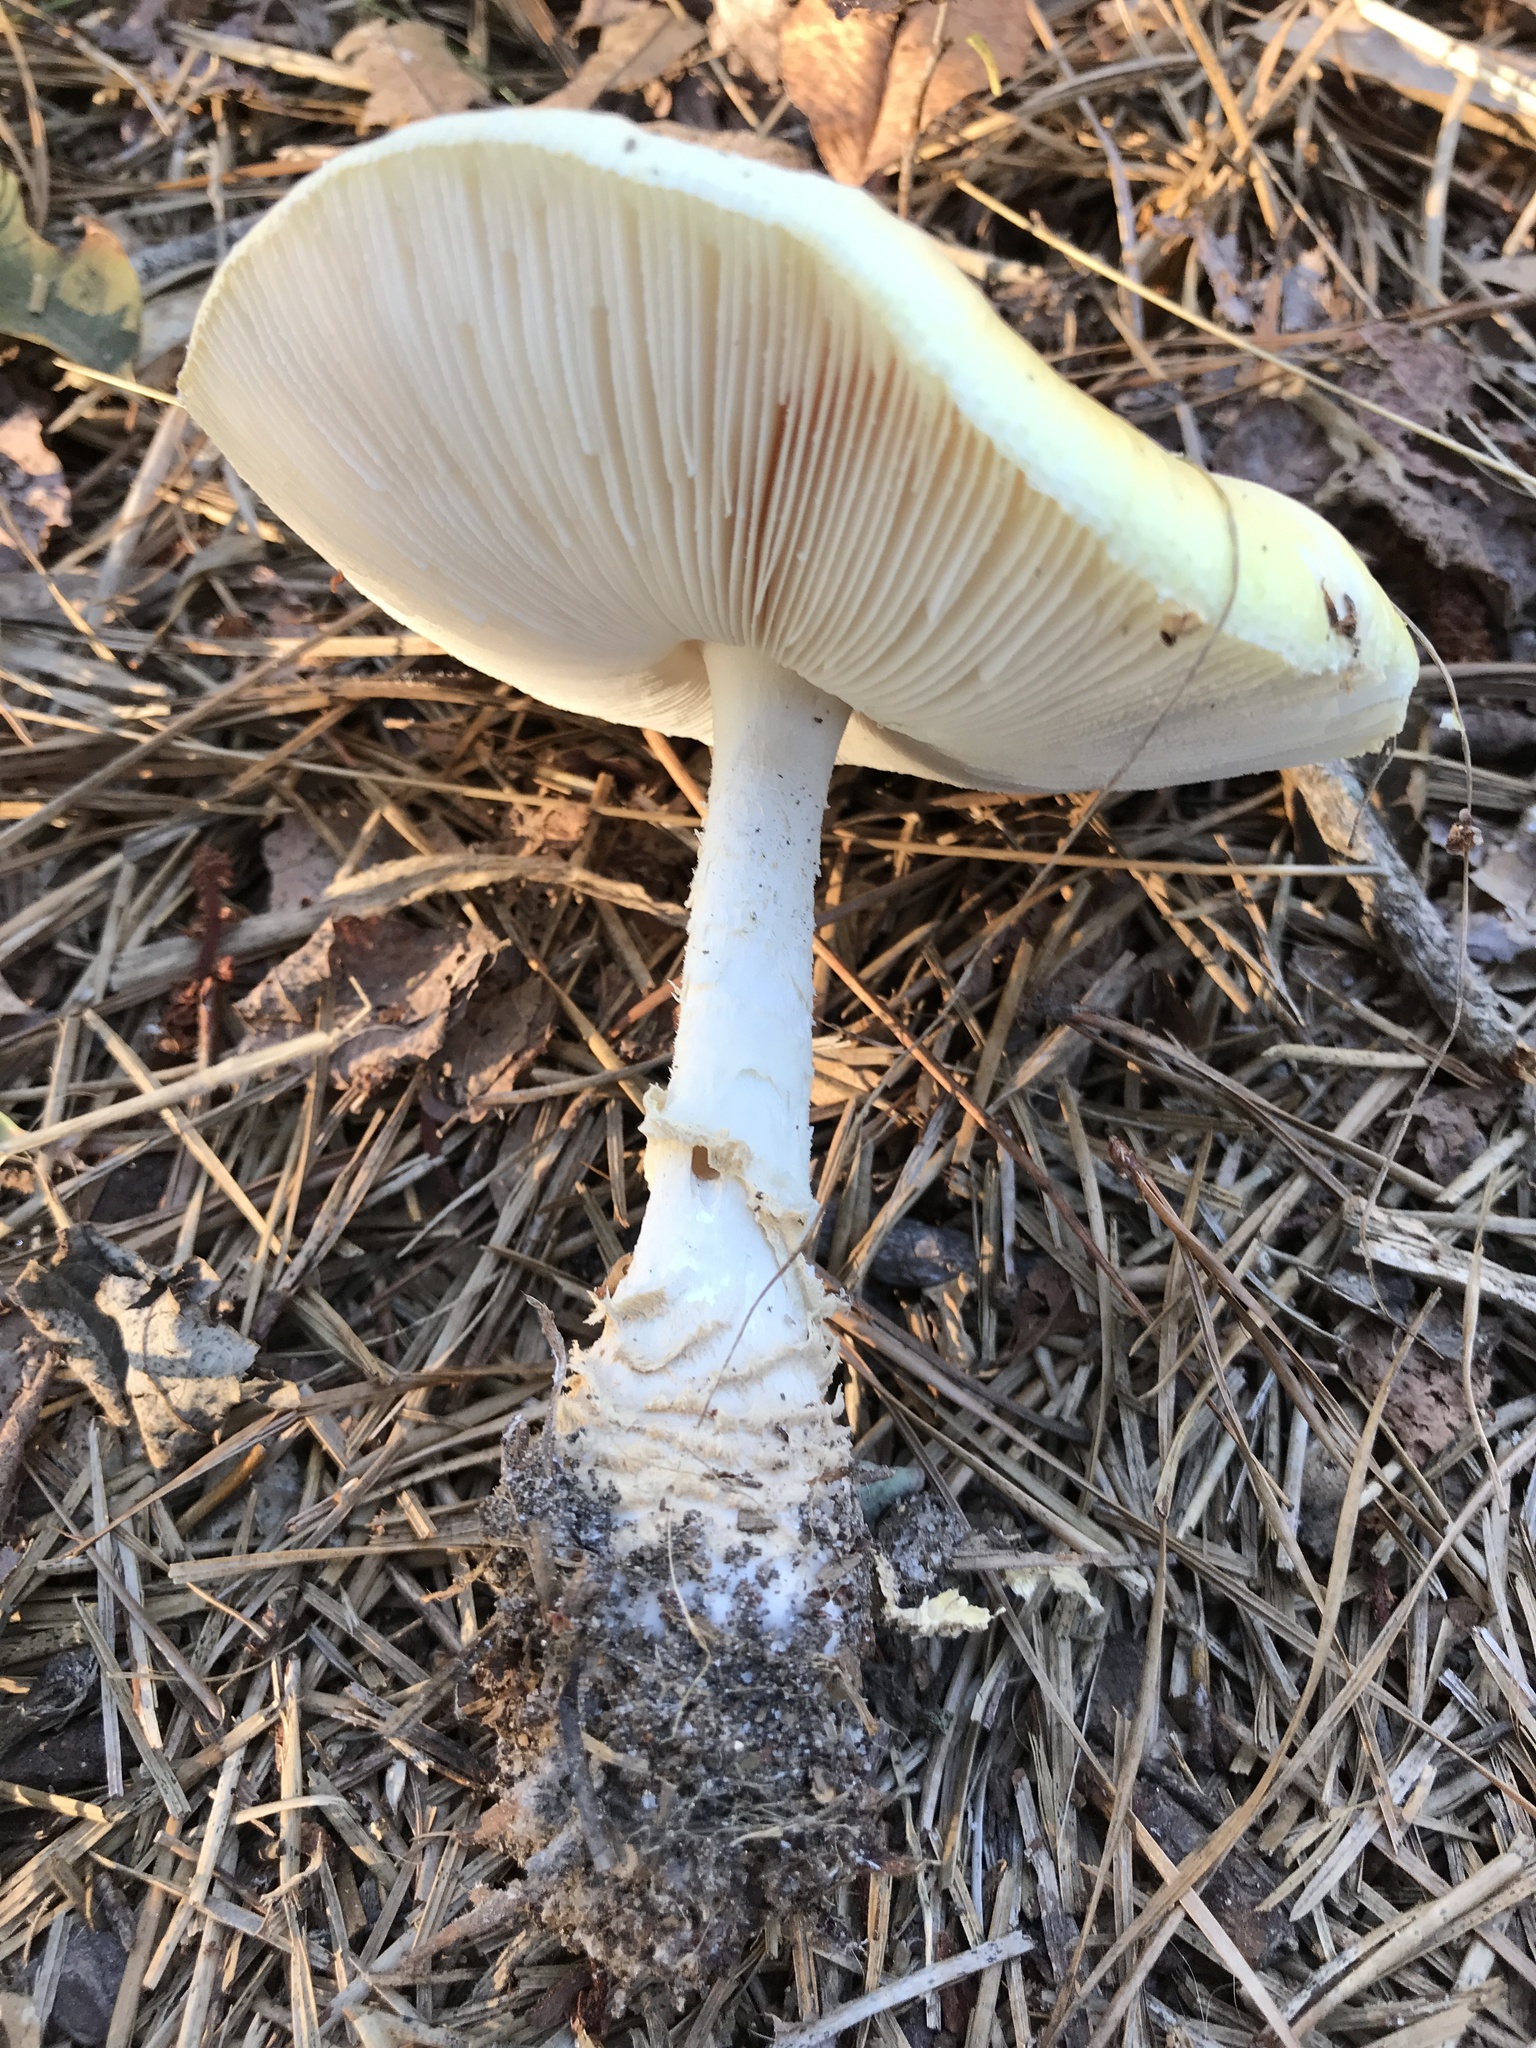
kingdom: Fungi
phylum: Basidiomycota
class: Agaricomycetes
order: Agaricales
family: Amanitaceae
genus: Amanita
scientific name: Amanita muscaria
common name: Fly agaric
